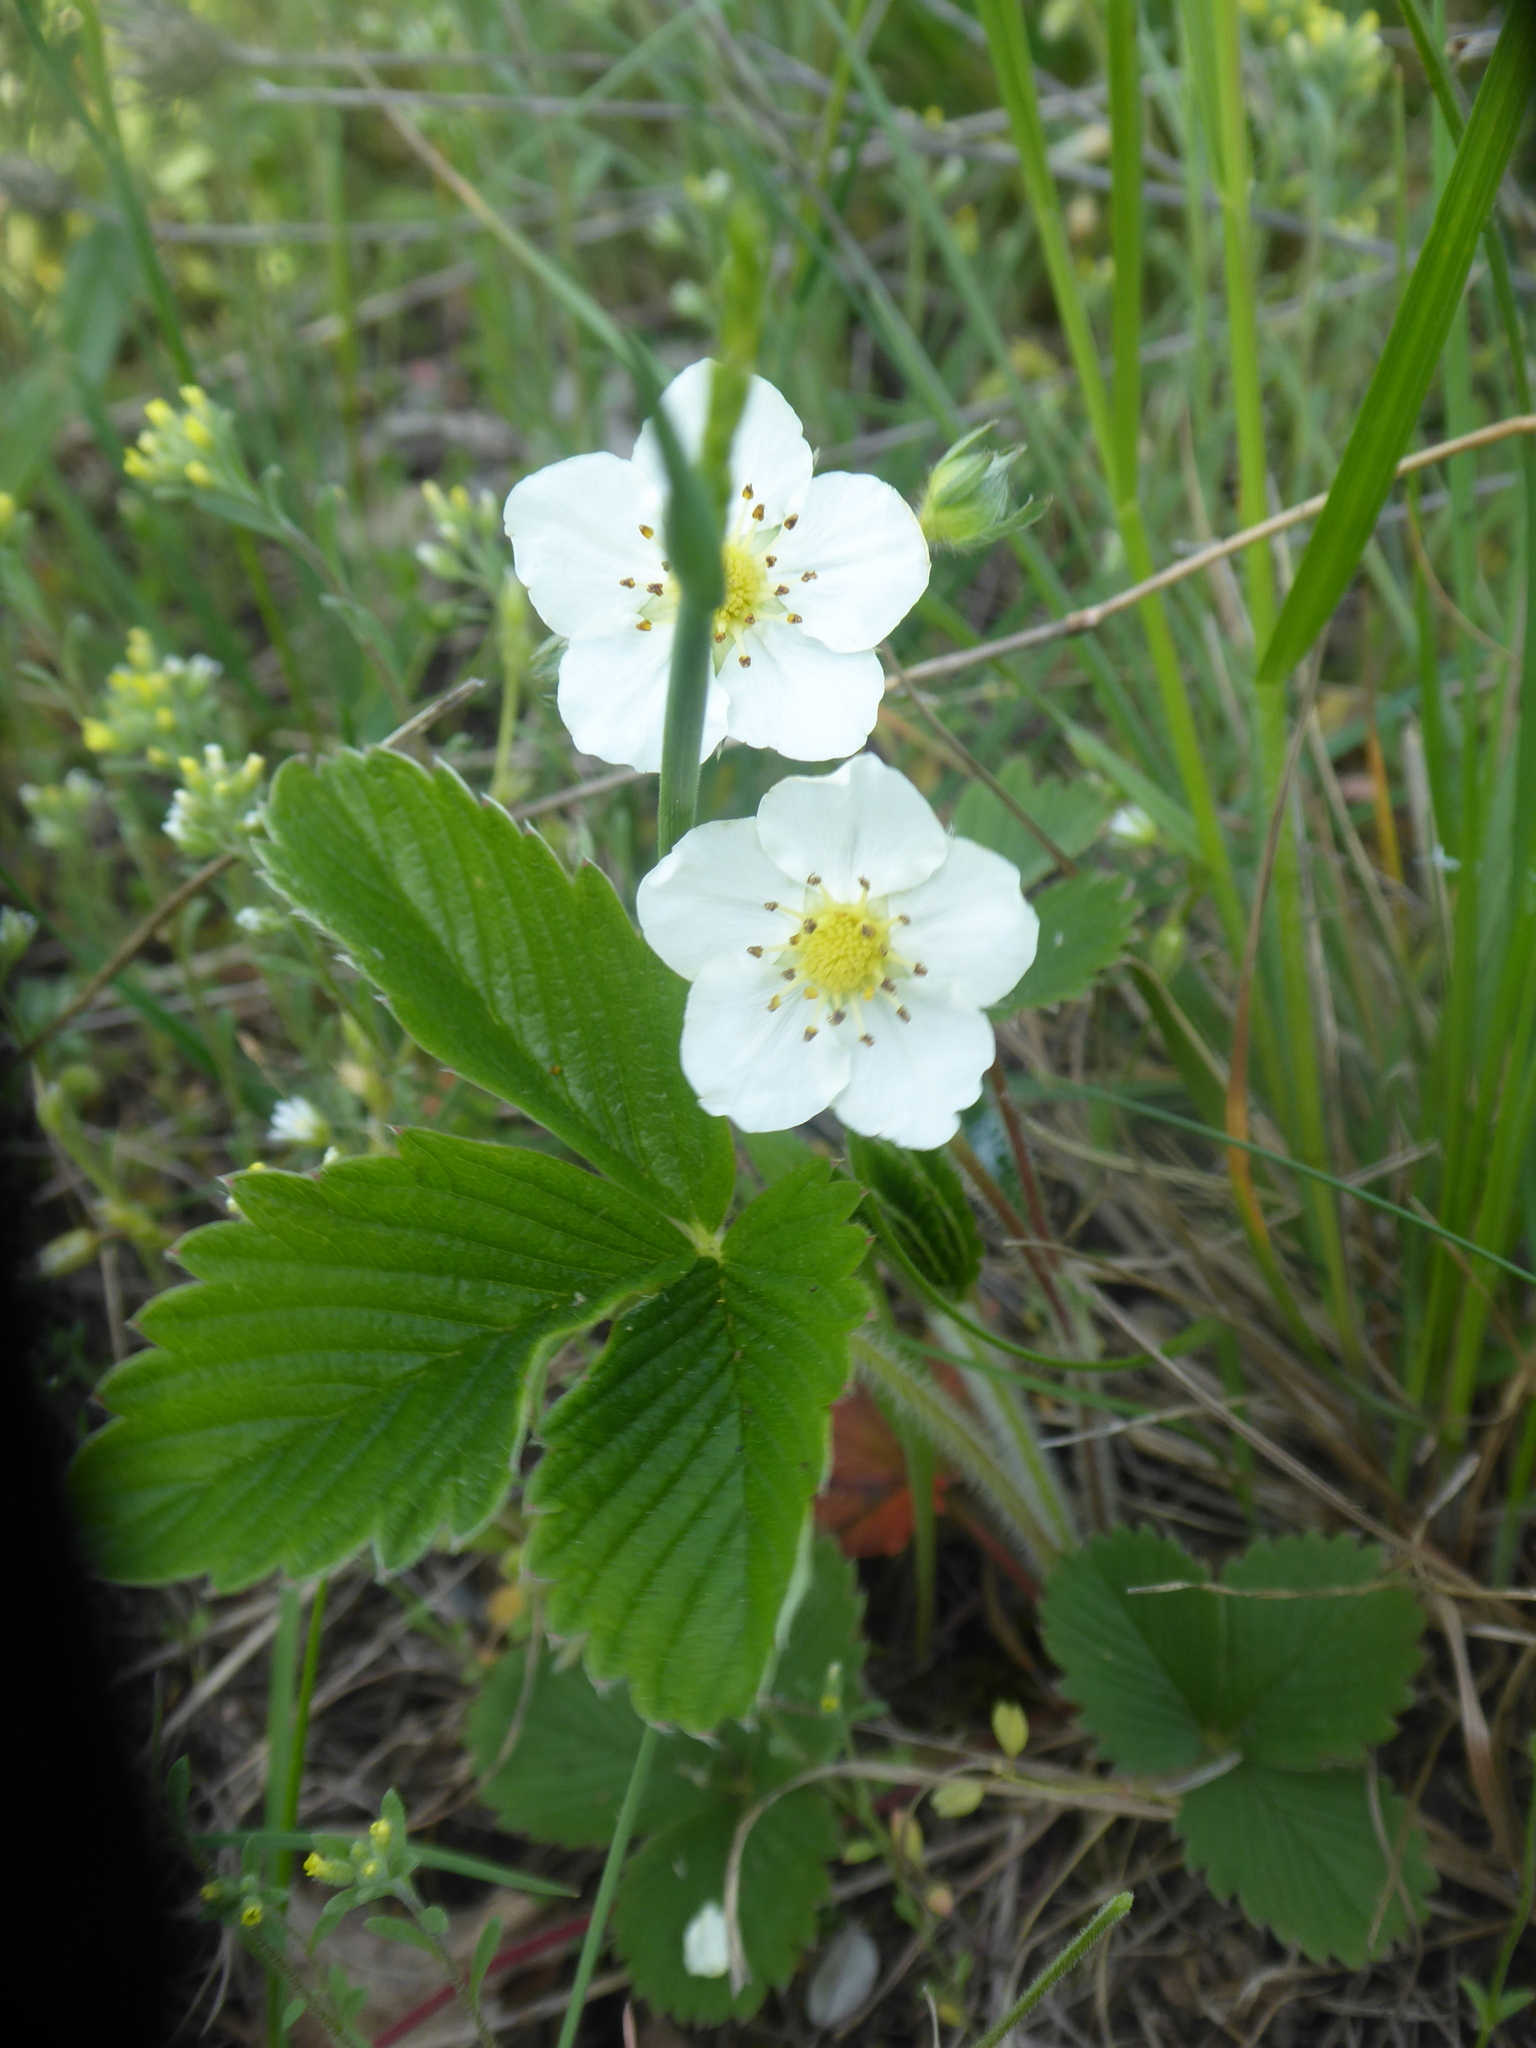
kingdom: Plantae
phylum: Tracheophyta
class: Magnoliopsida
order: Rosales
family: Rosaceae
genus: Fragaria
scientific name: Fragaria viridis
